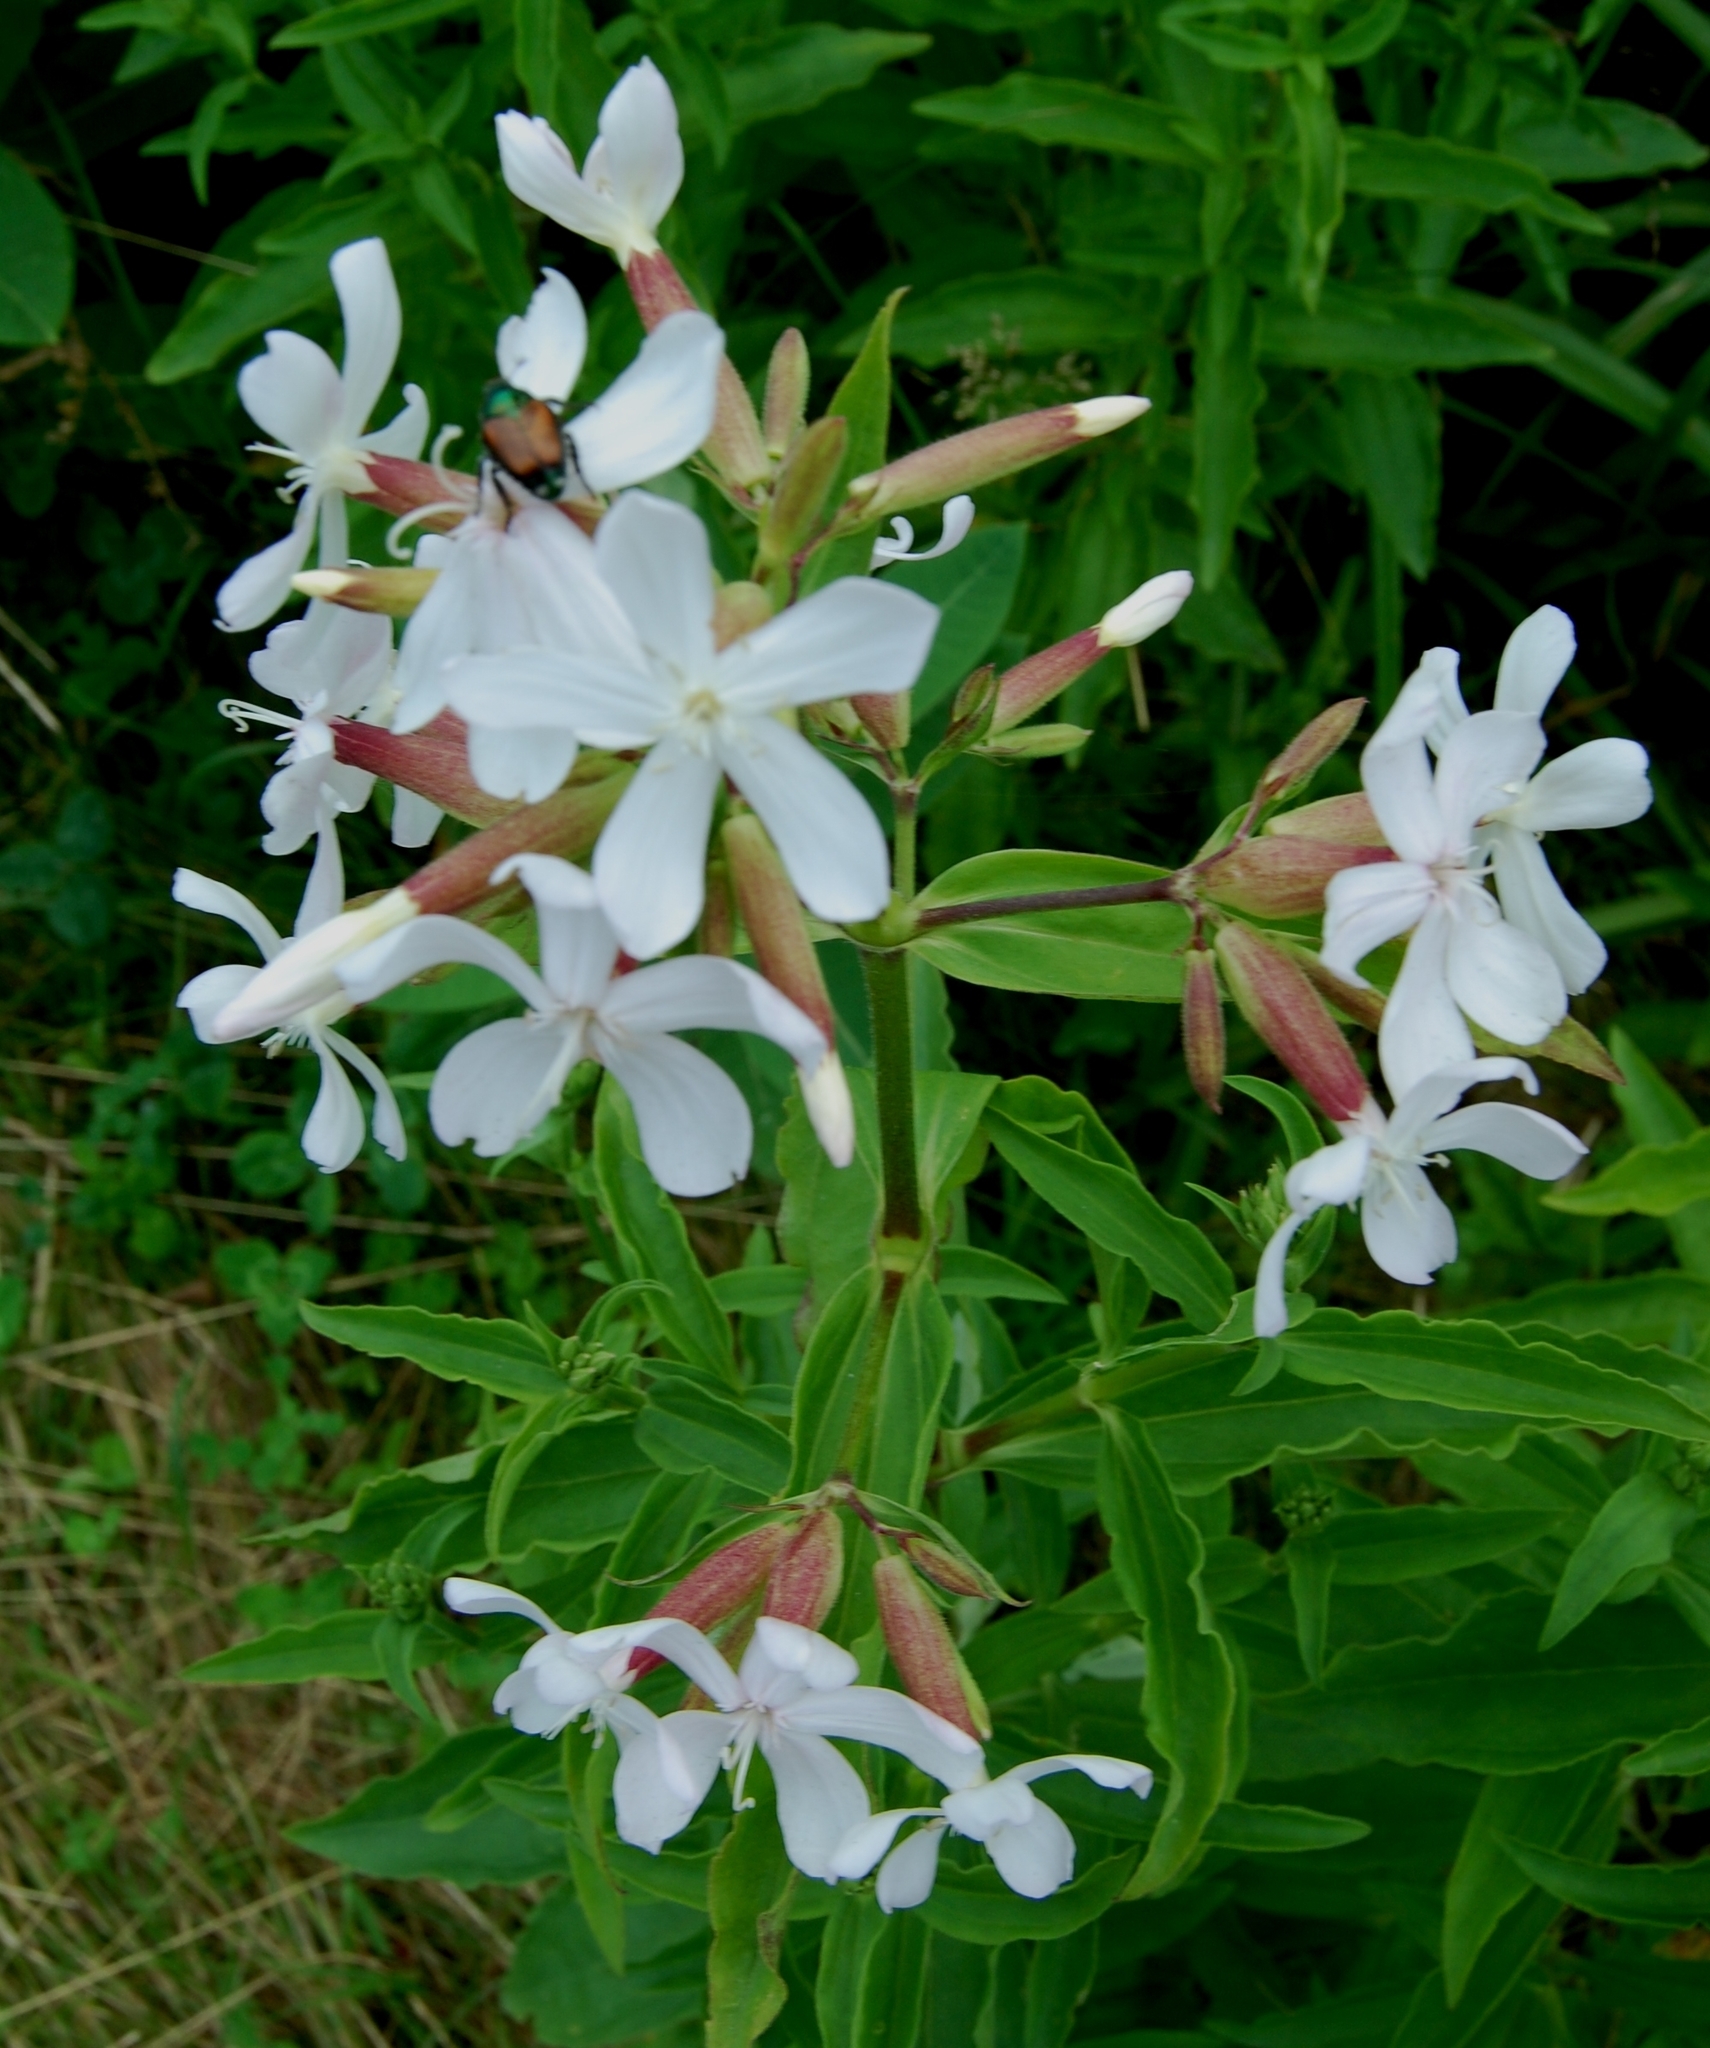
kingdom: Plantae
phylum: Tracheophyta
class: Magnoliopsida
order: Caryophyllales
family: Caryophyllaceae
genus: Saponaria
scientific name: Saponaria officinalis
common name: Soapwort
